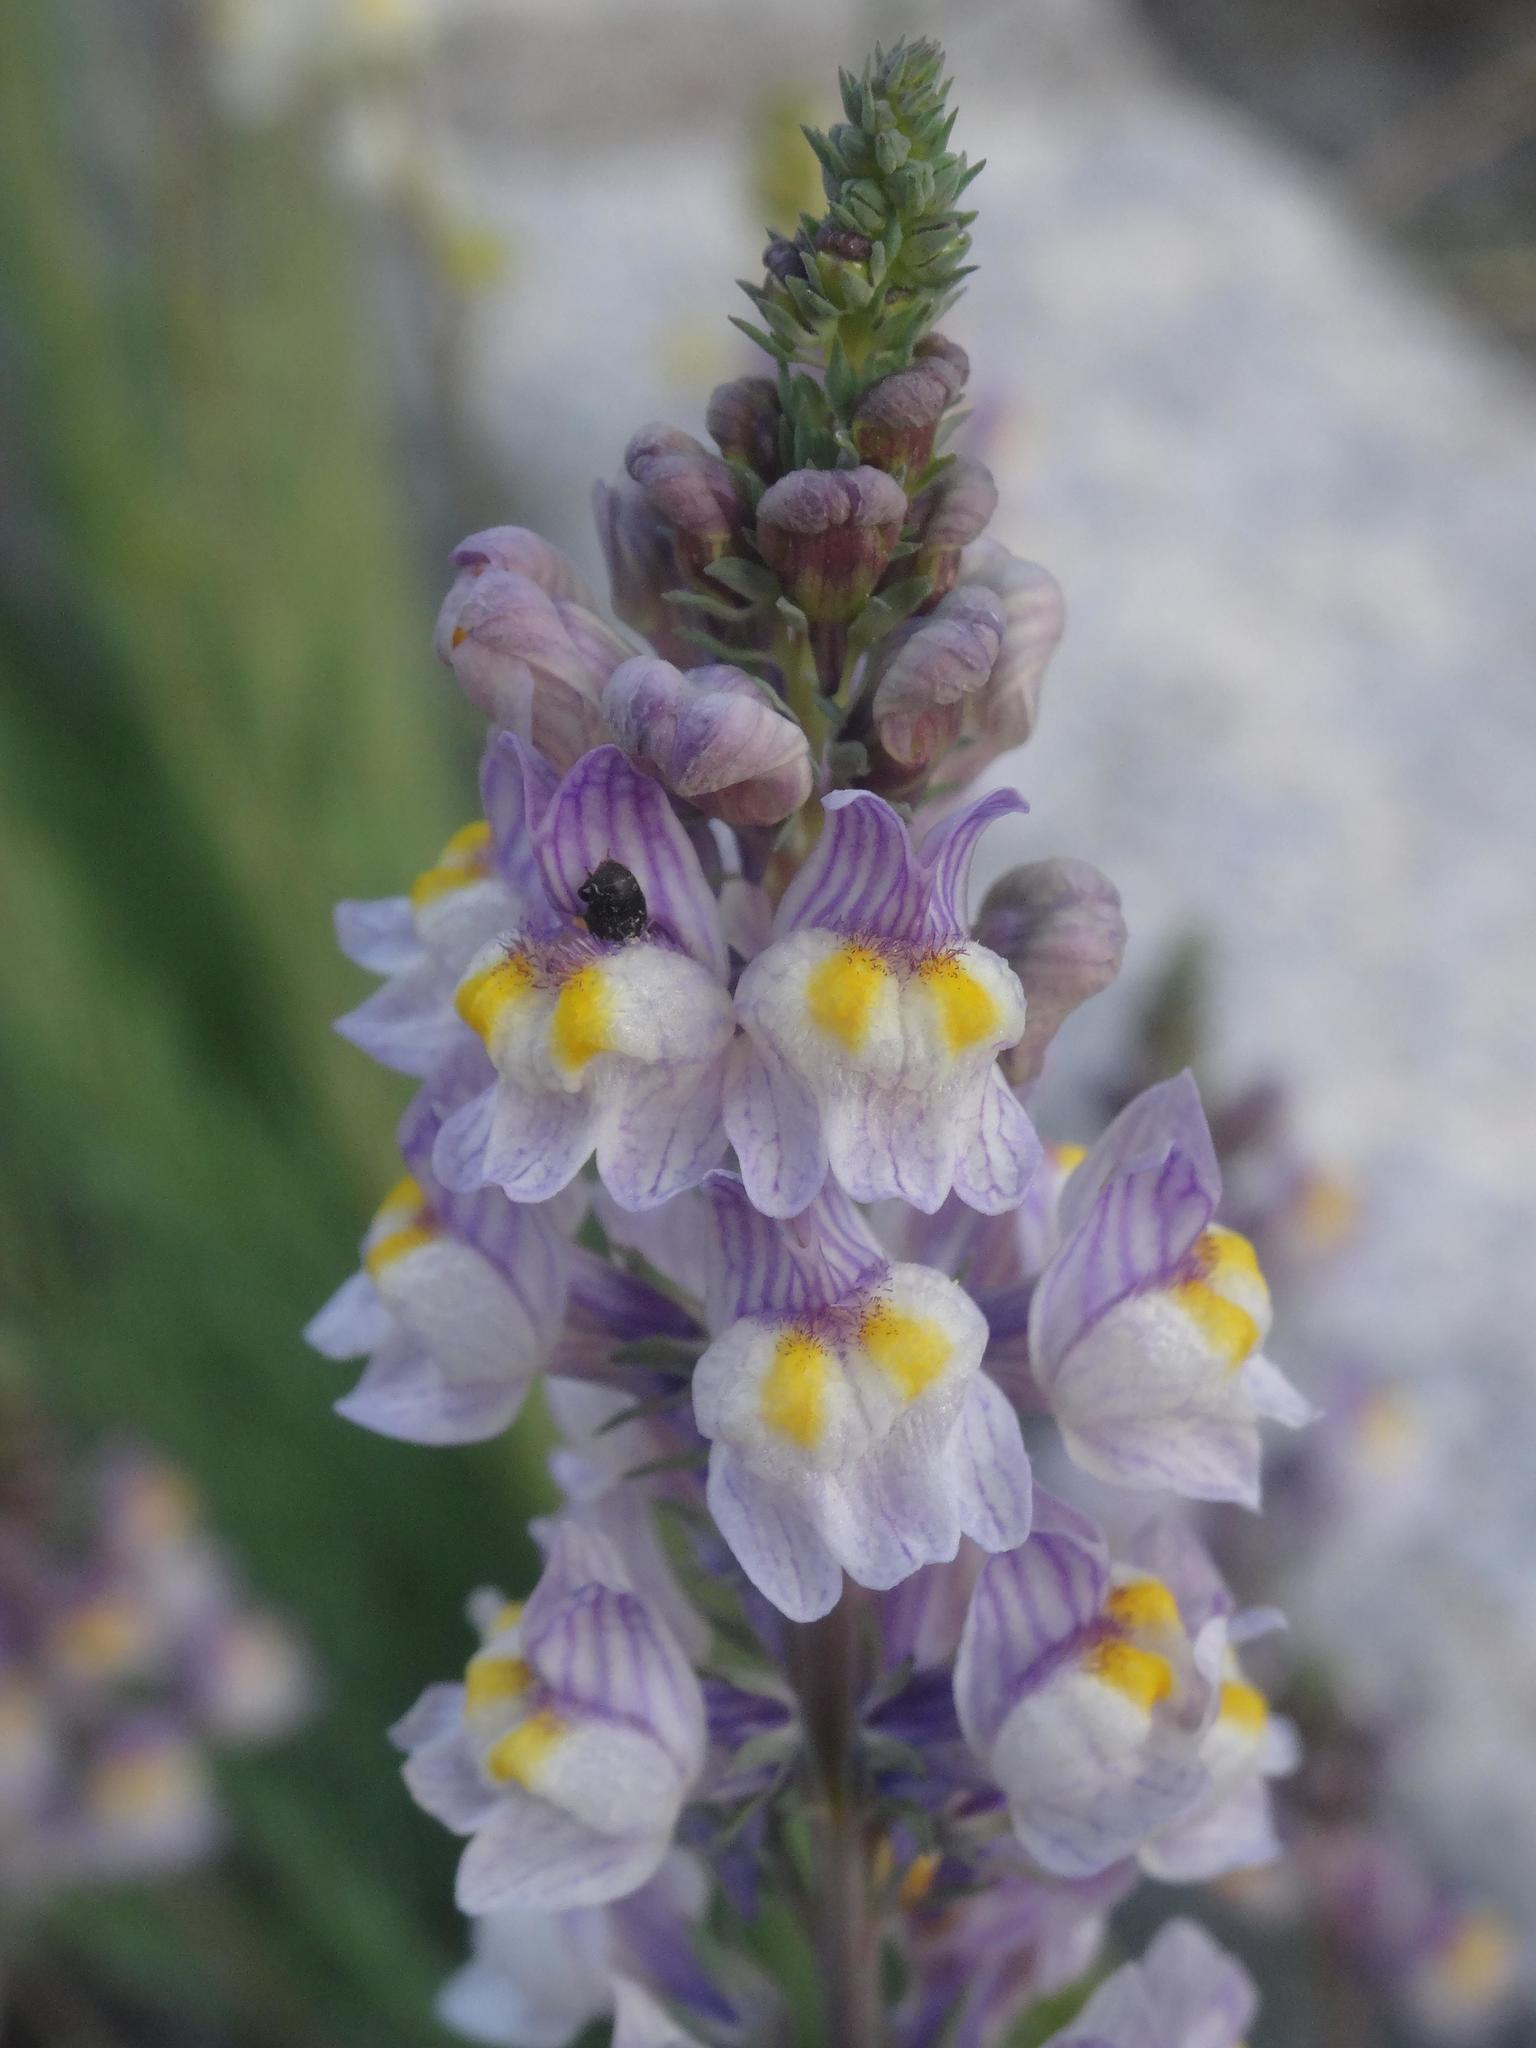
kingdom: Plantae
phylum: Tracheophyta
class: Magnoliopsida
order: Lamiales
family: Plantaginaceae
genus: Linaria
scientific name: Linaria repens
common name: Pale toadflax
